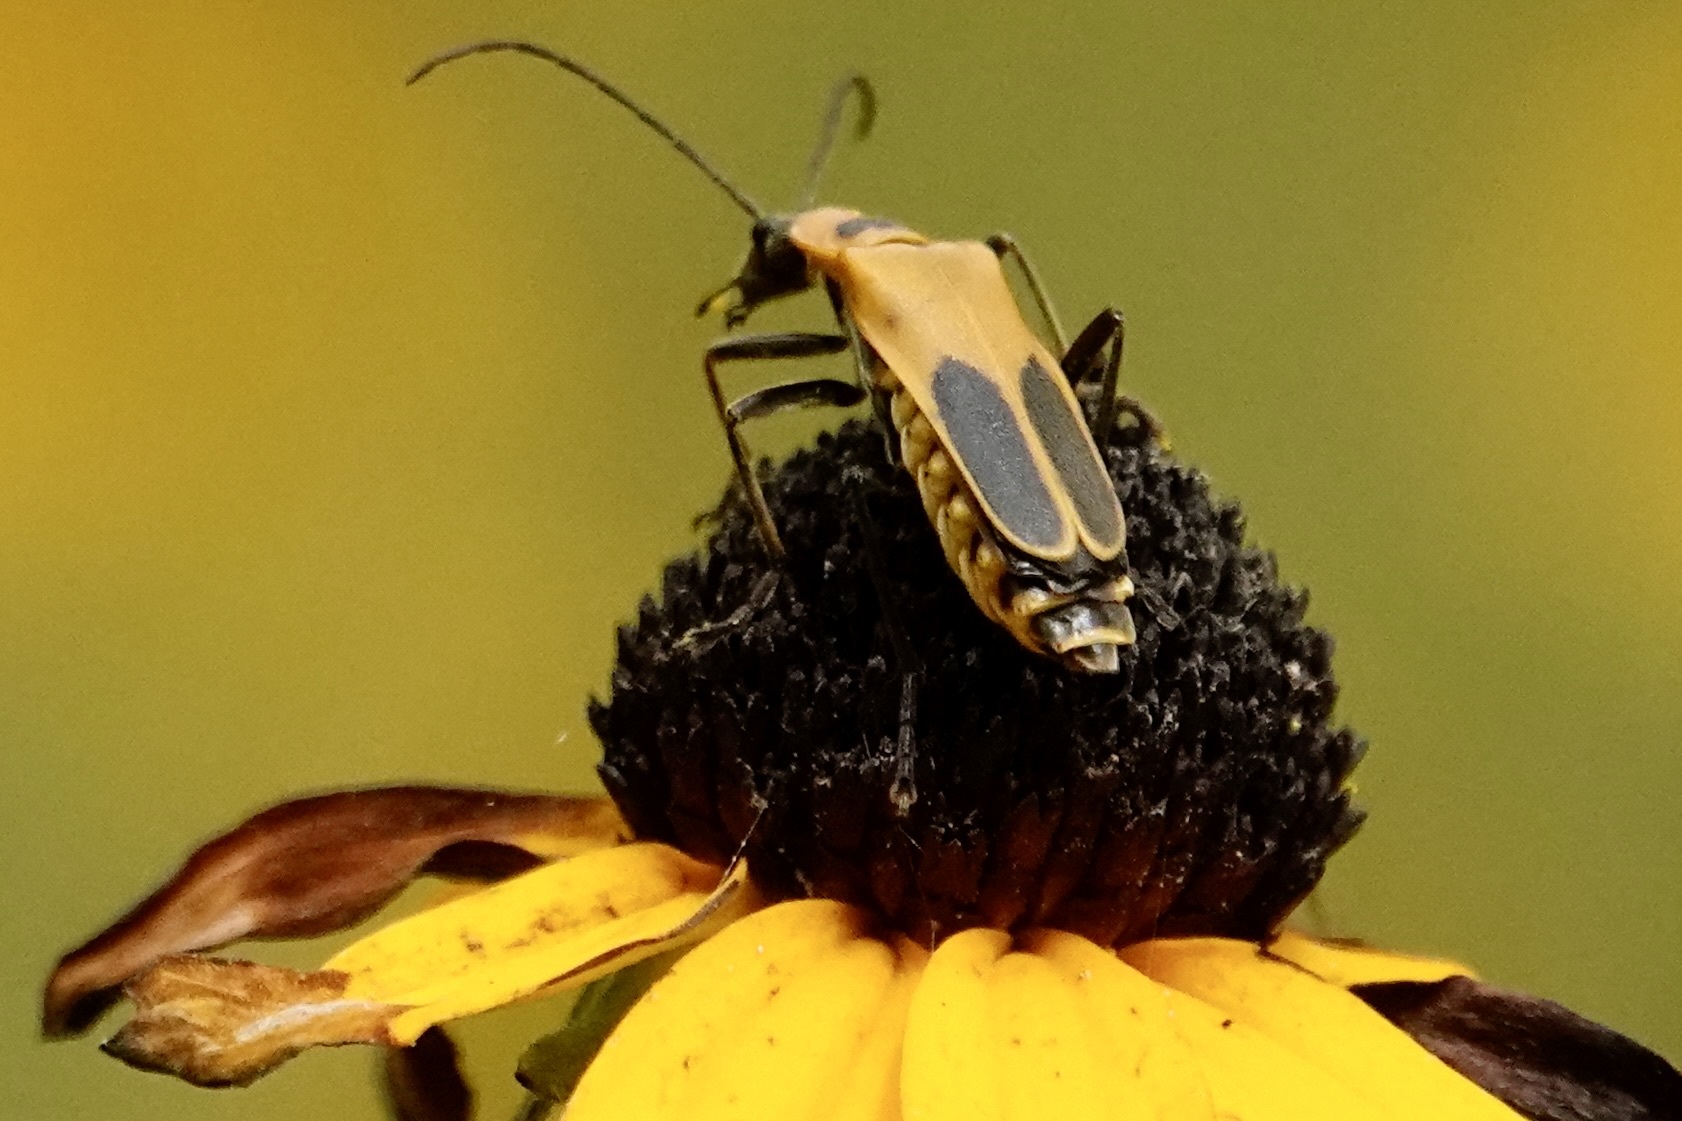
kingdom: Animalia
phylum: Arthropoda
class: Insecta
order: Coleoptera
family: Cantharidae
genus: Chauliognathus
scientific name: Chauliognathus pensylvanicus
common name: Goldenrod soldier beetle
